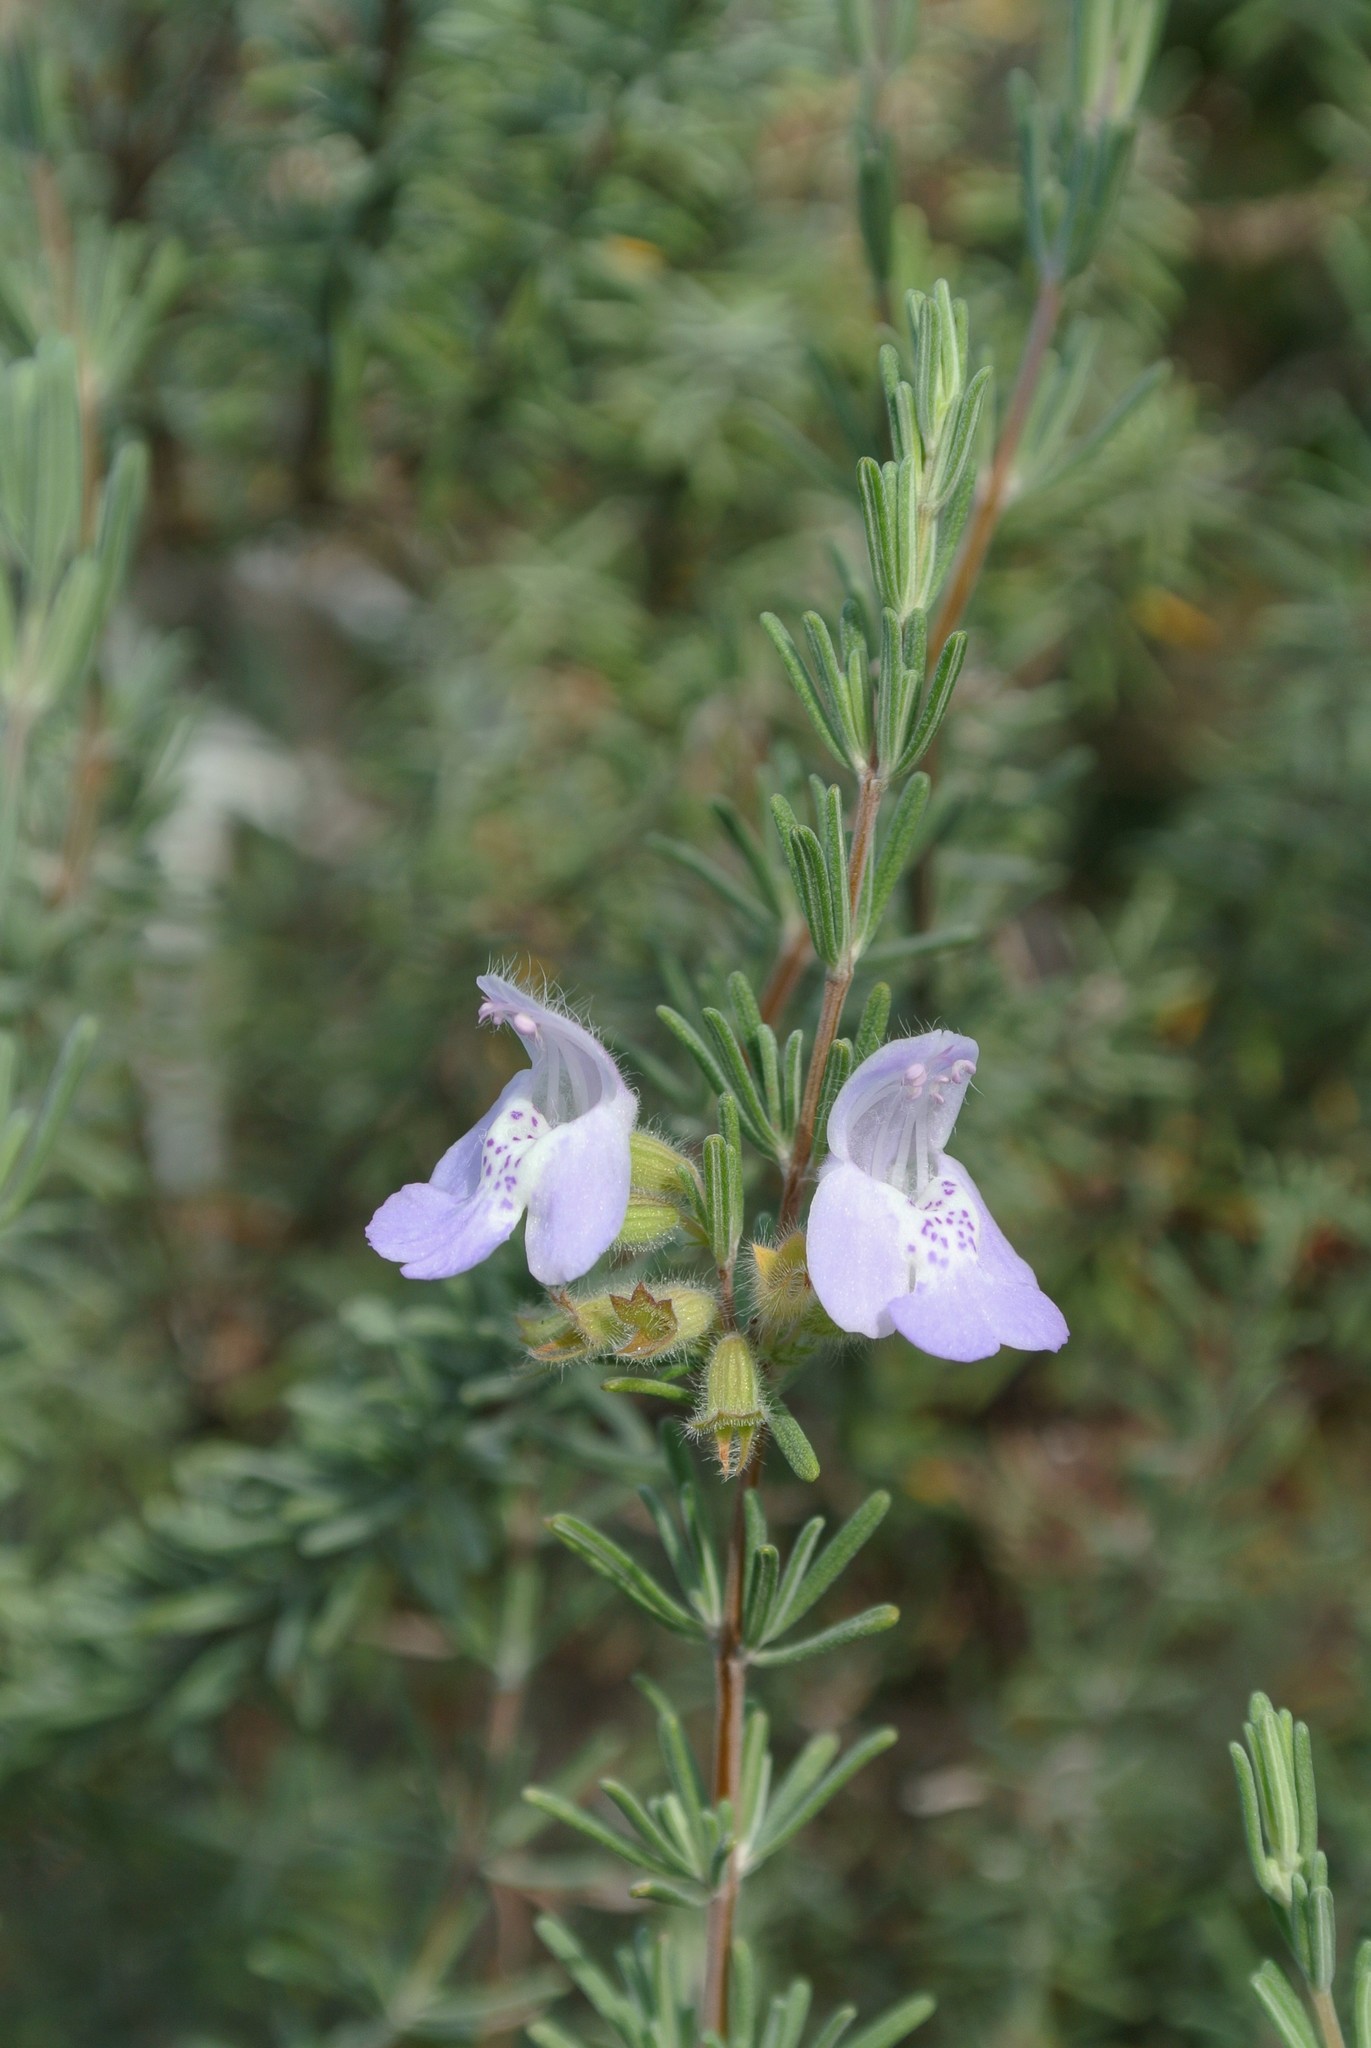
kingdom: Plantae
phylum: Tracheophyta
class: Magnoliopsida
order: Lamiales
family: Lamiaceae
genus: Conradina
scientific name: Conradina canescens
